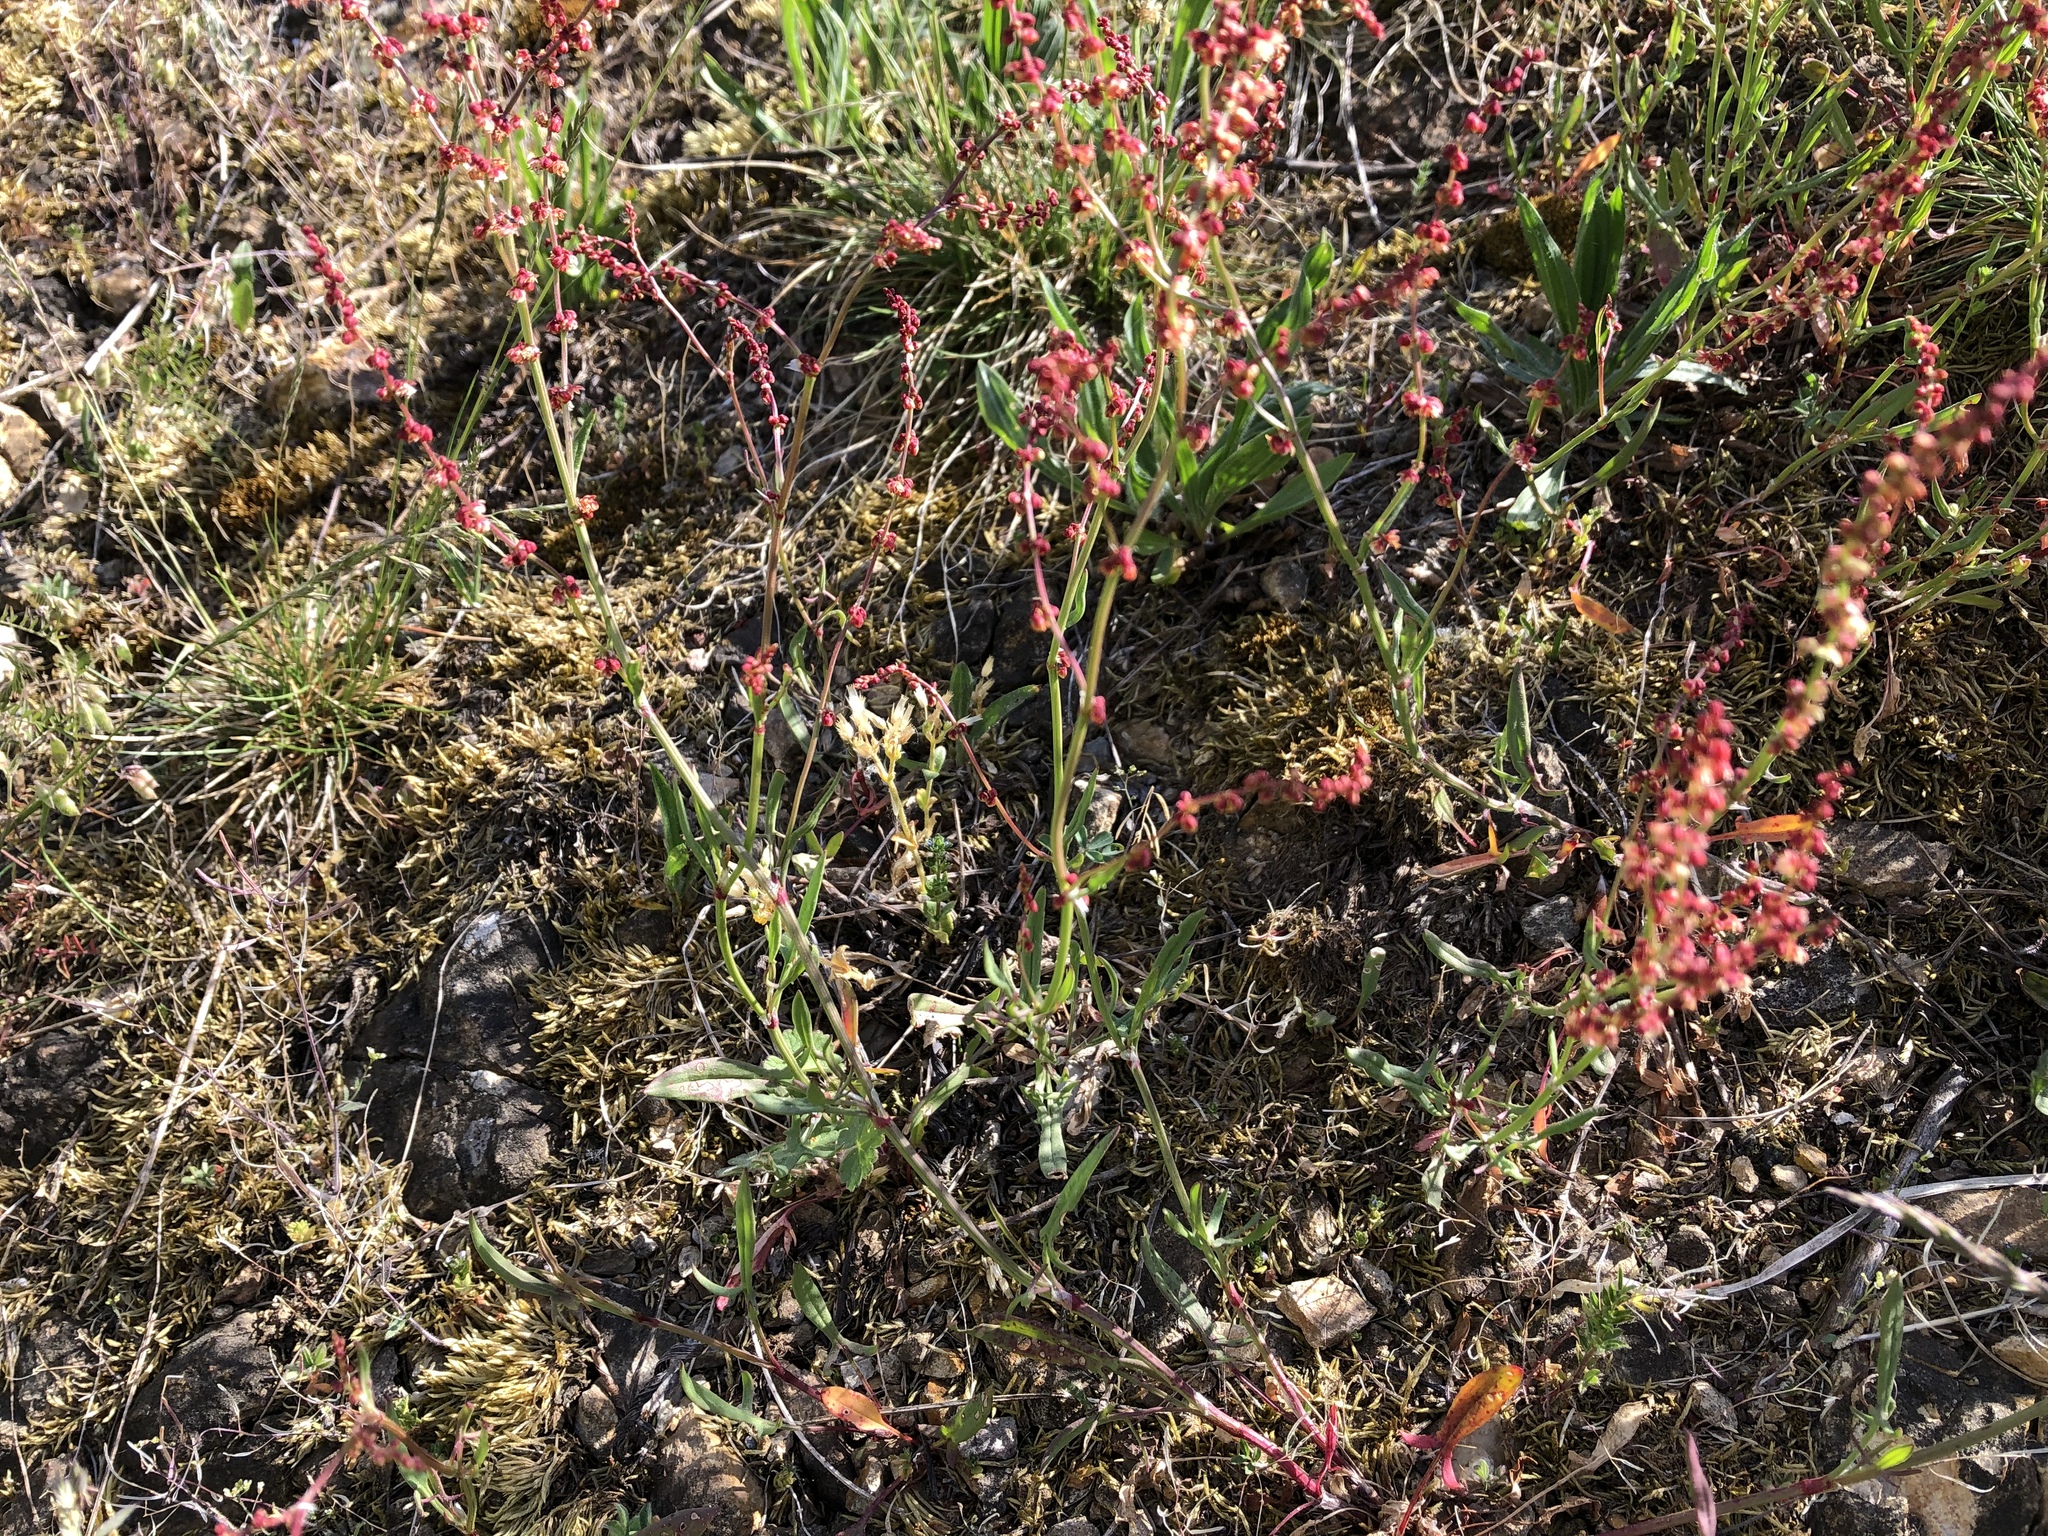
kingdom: Plantae
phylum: Tracheophyta
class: Magnoliopsida
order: Caryophyllales
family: Polygonaceae
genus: Rumex
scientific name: Rumex acetosella
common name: Common sheep sorrel
